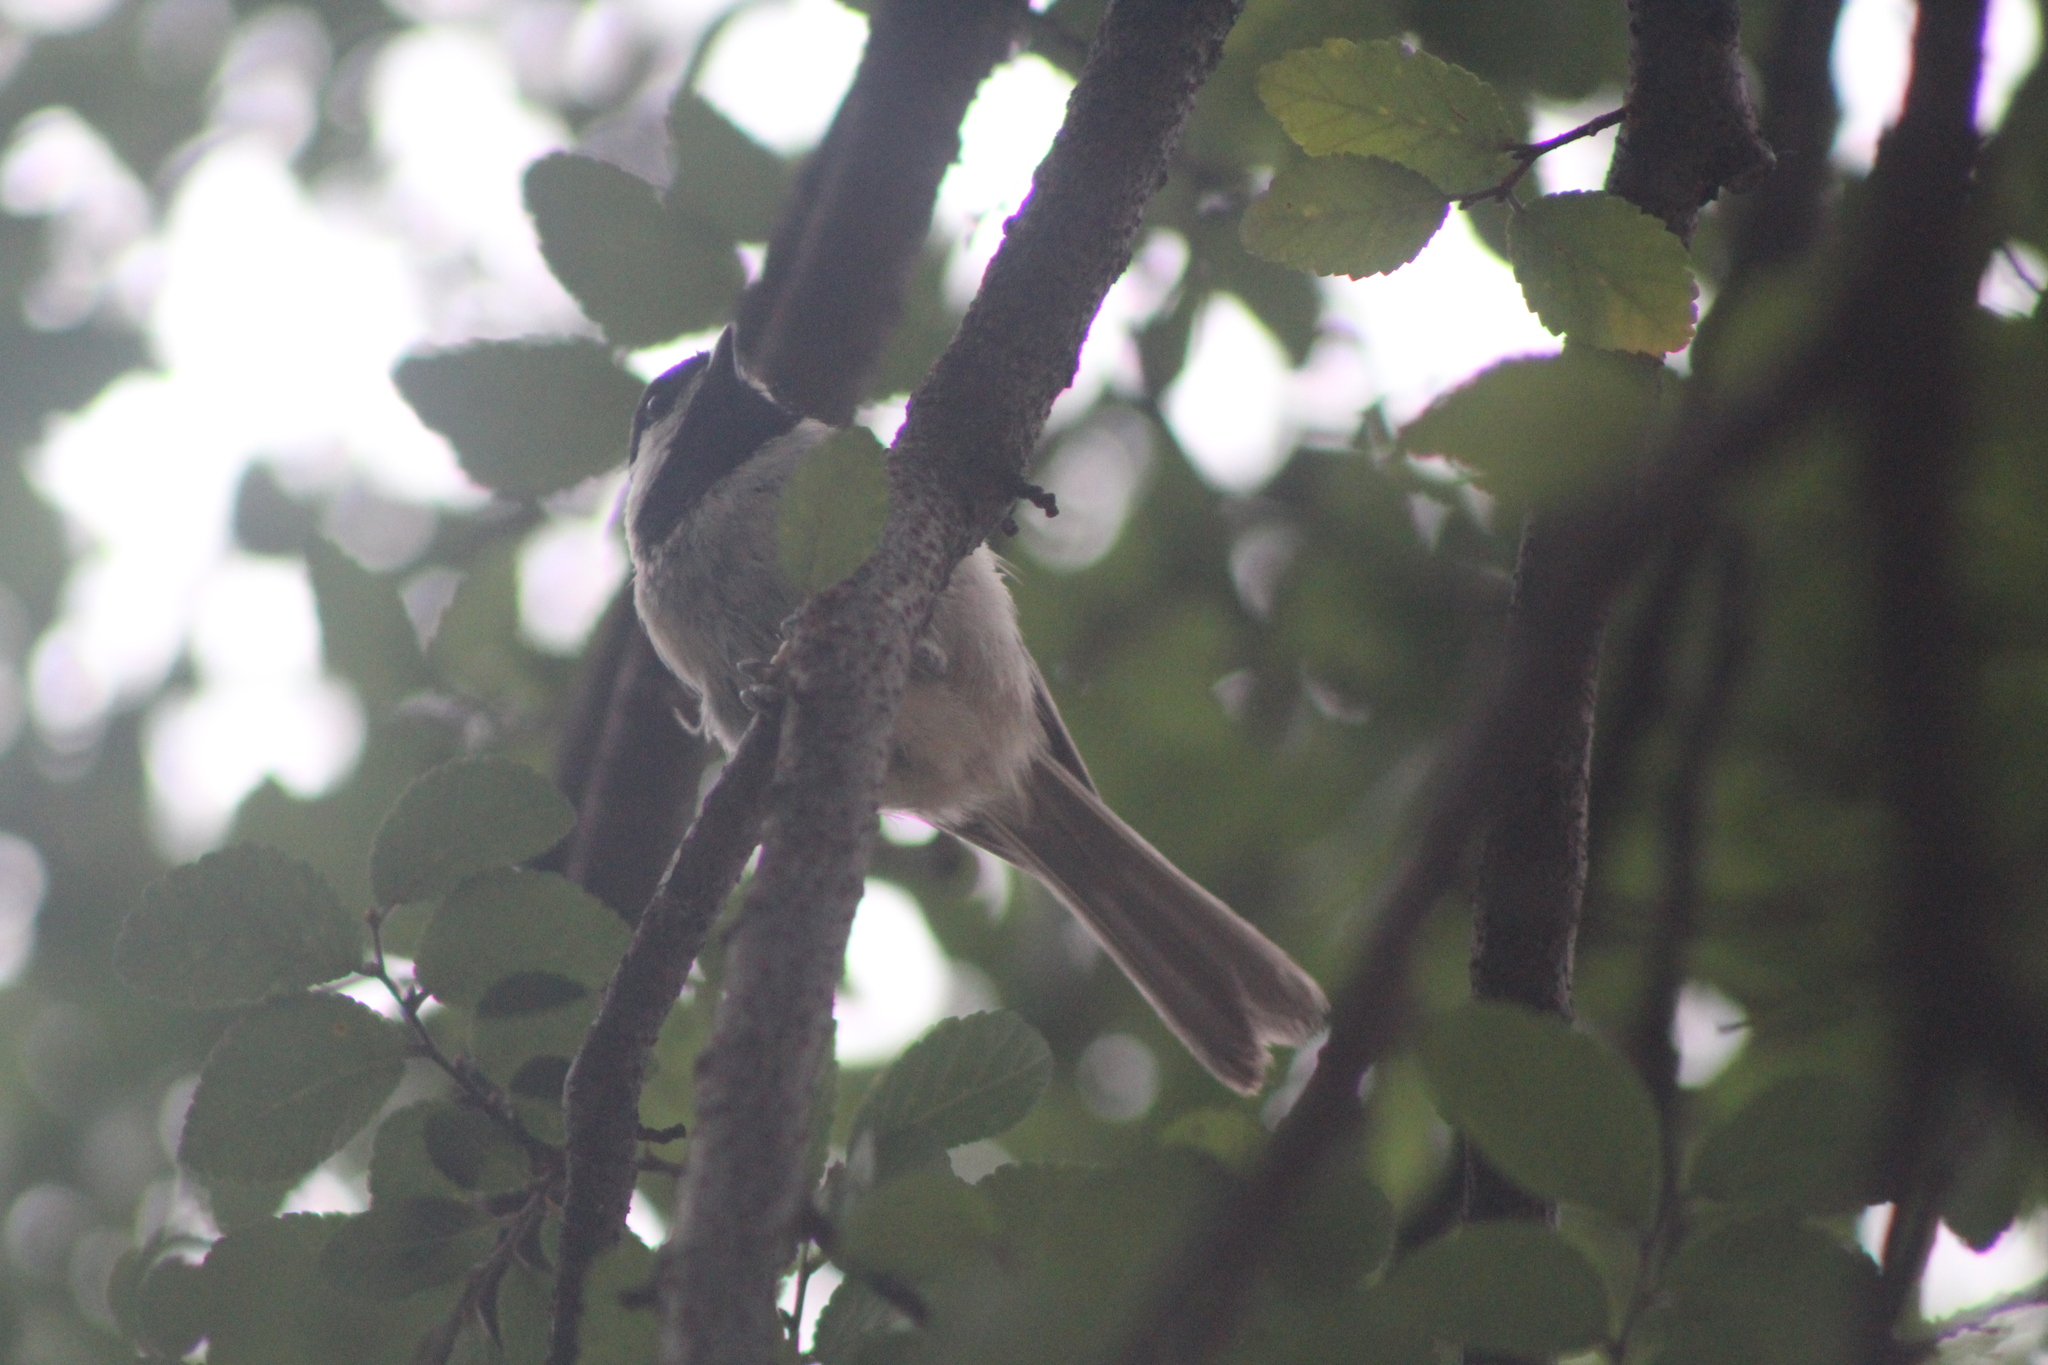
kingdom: Animalia
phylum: Chordata
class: Aves
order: Passeriformes
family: Paridae
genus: Poecile
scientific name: Poecile carolinensis
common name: Carolina chickadee
